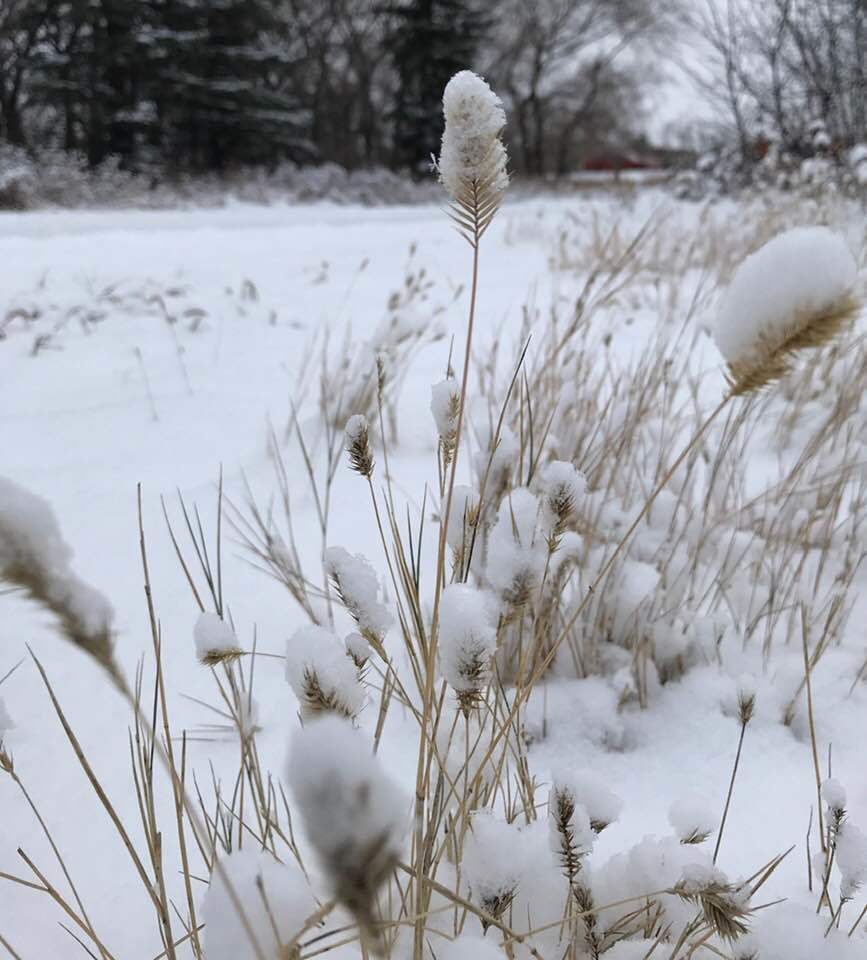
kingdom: Plantae
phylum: Tracheophyta
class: Liliopsida
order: Poales
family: Poaceae
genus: Agropyron
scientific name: Agropyron cristatum
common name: Crested wheatgrass
